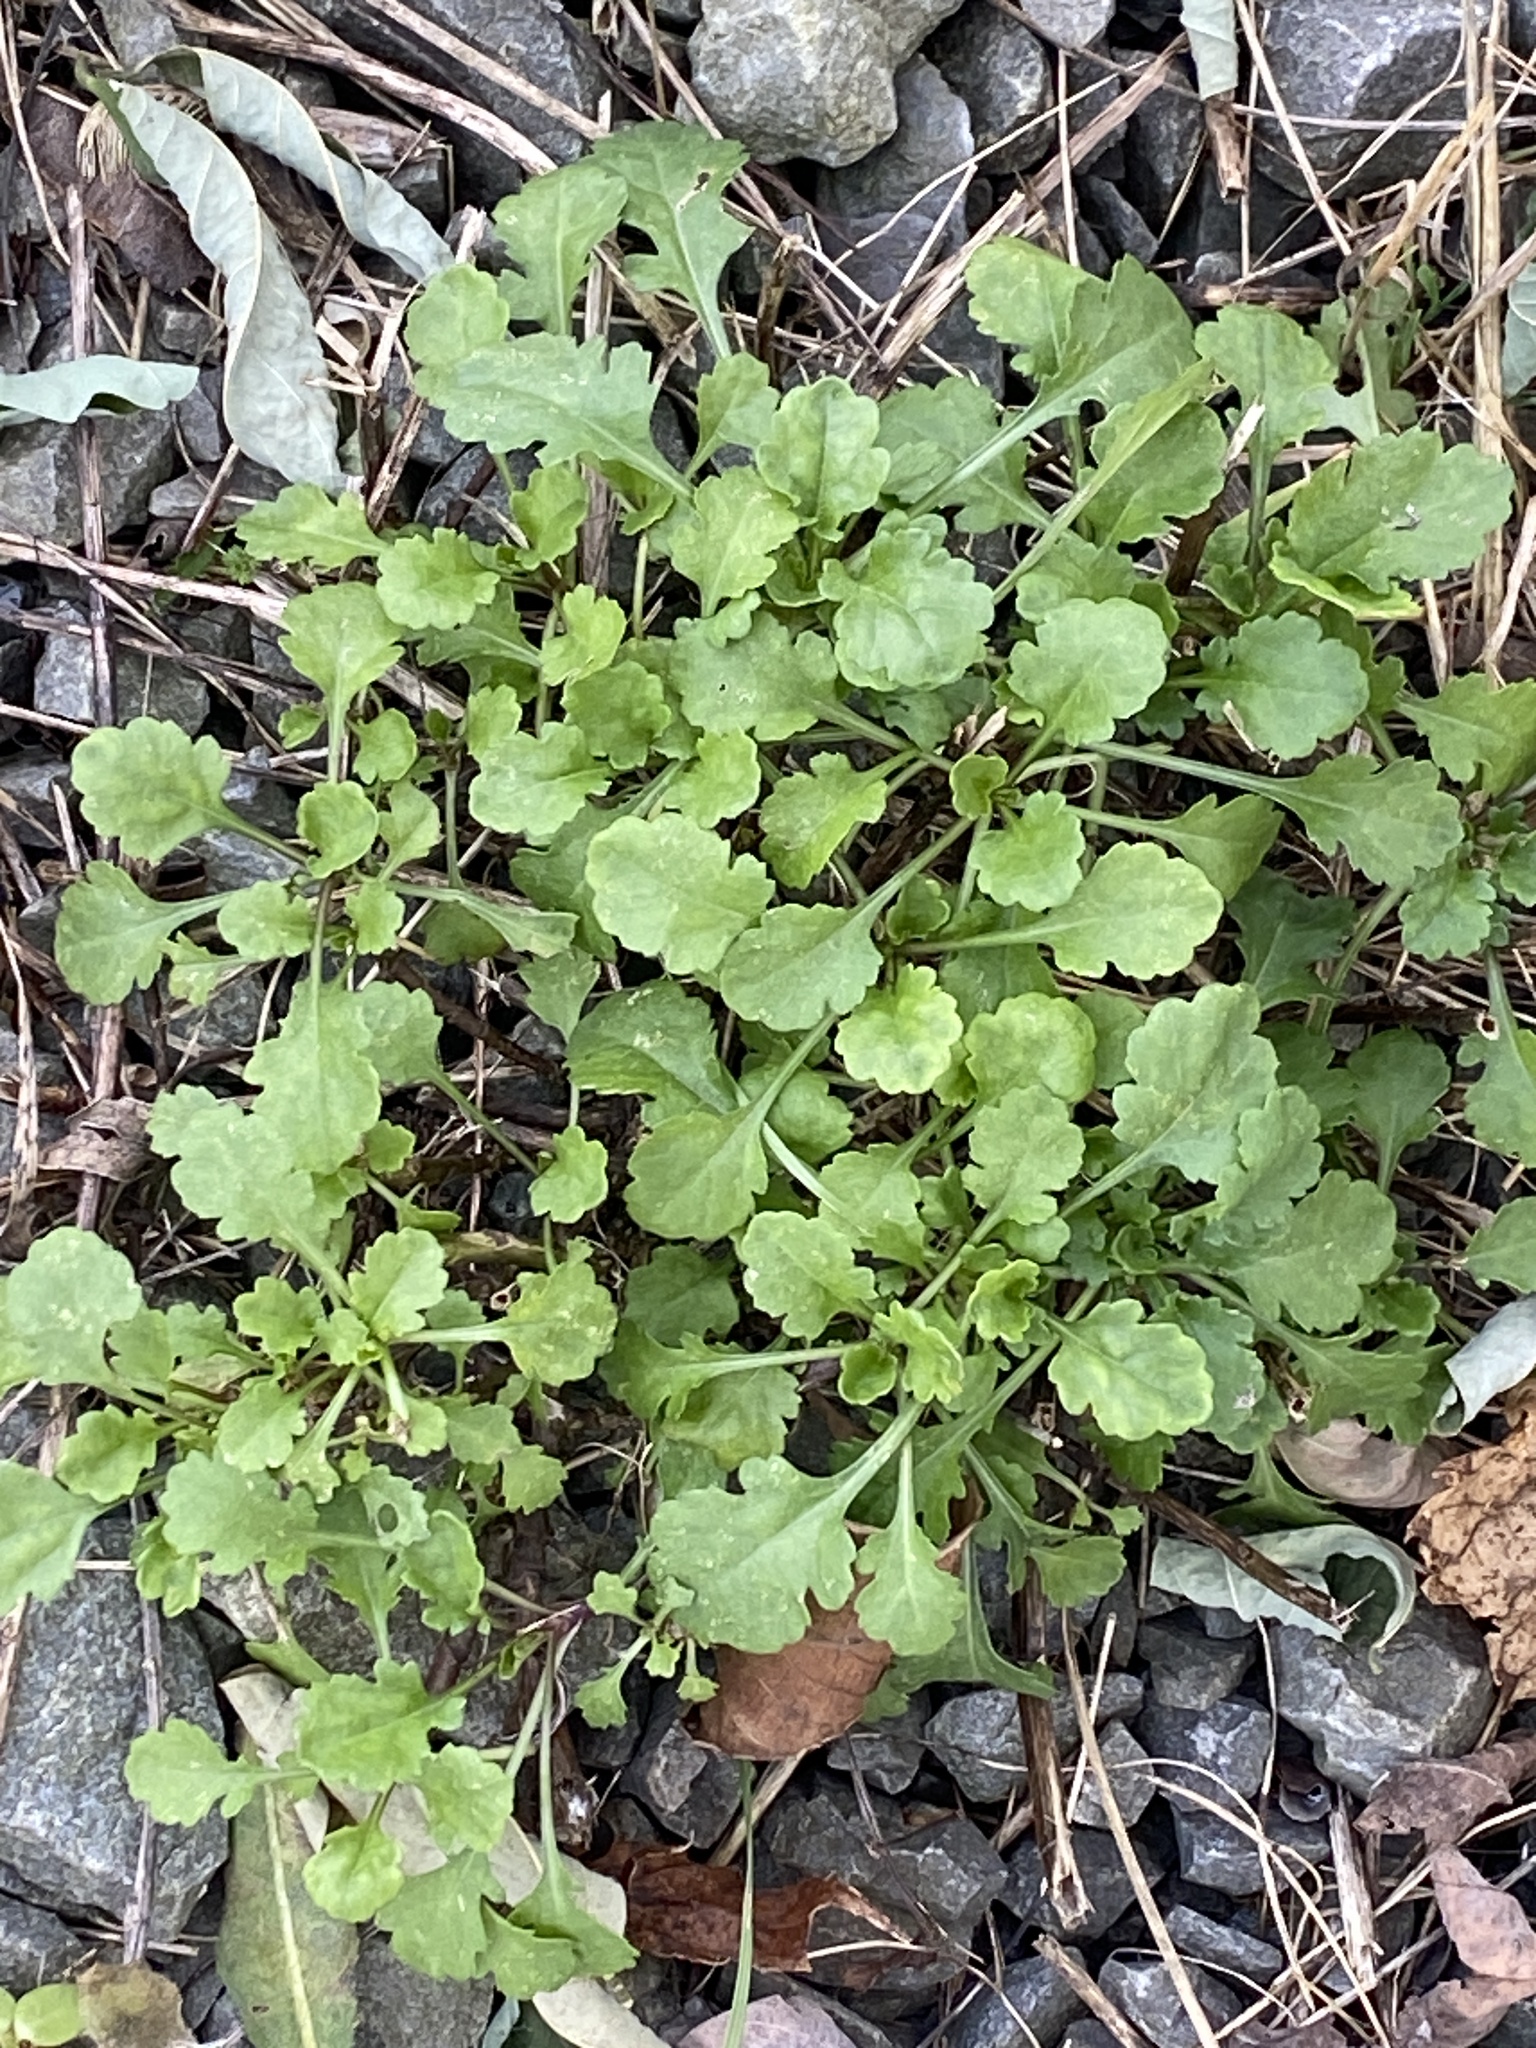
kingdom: Plantae
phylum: Tracheophyta
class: Magnoliopsida
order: Asterales
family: Asteraceae
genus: Leucanthemum
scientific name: Leucanthemum vulgare
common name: Oxeye daisy
